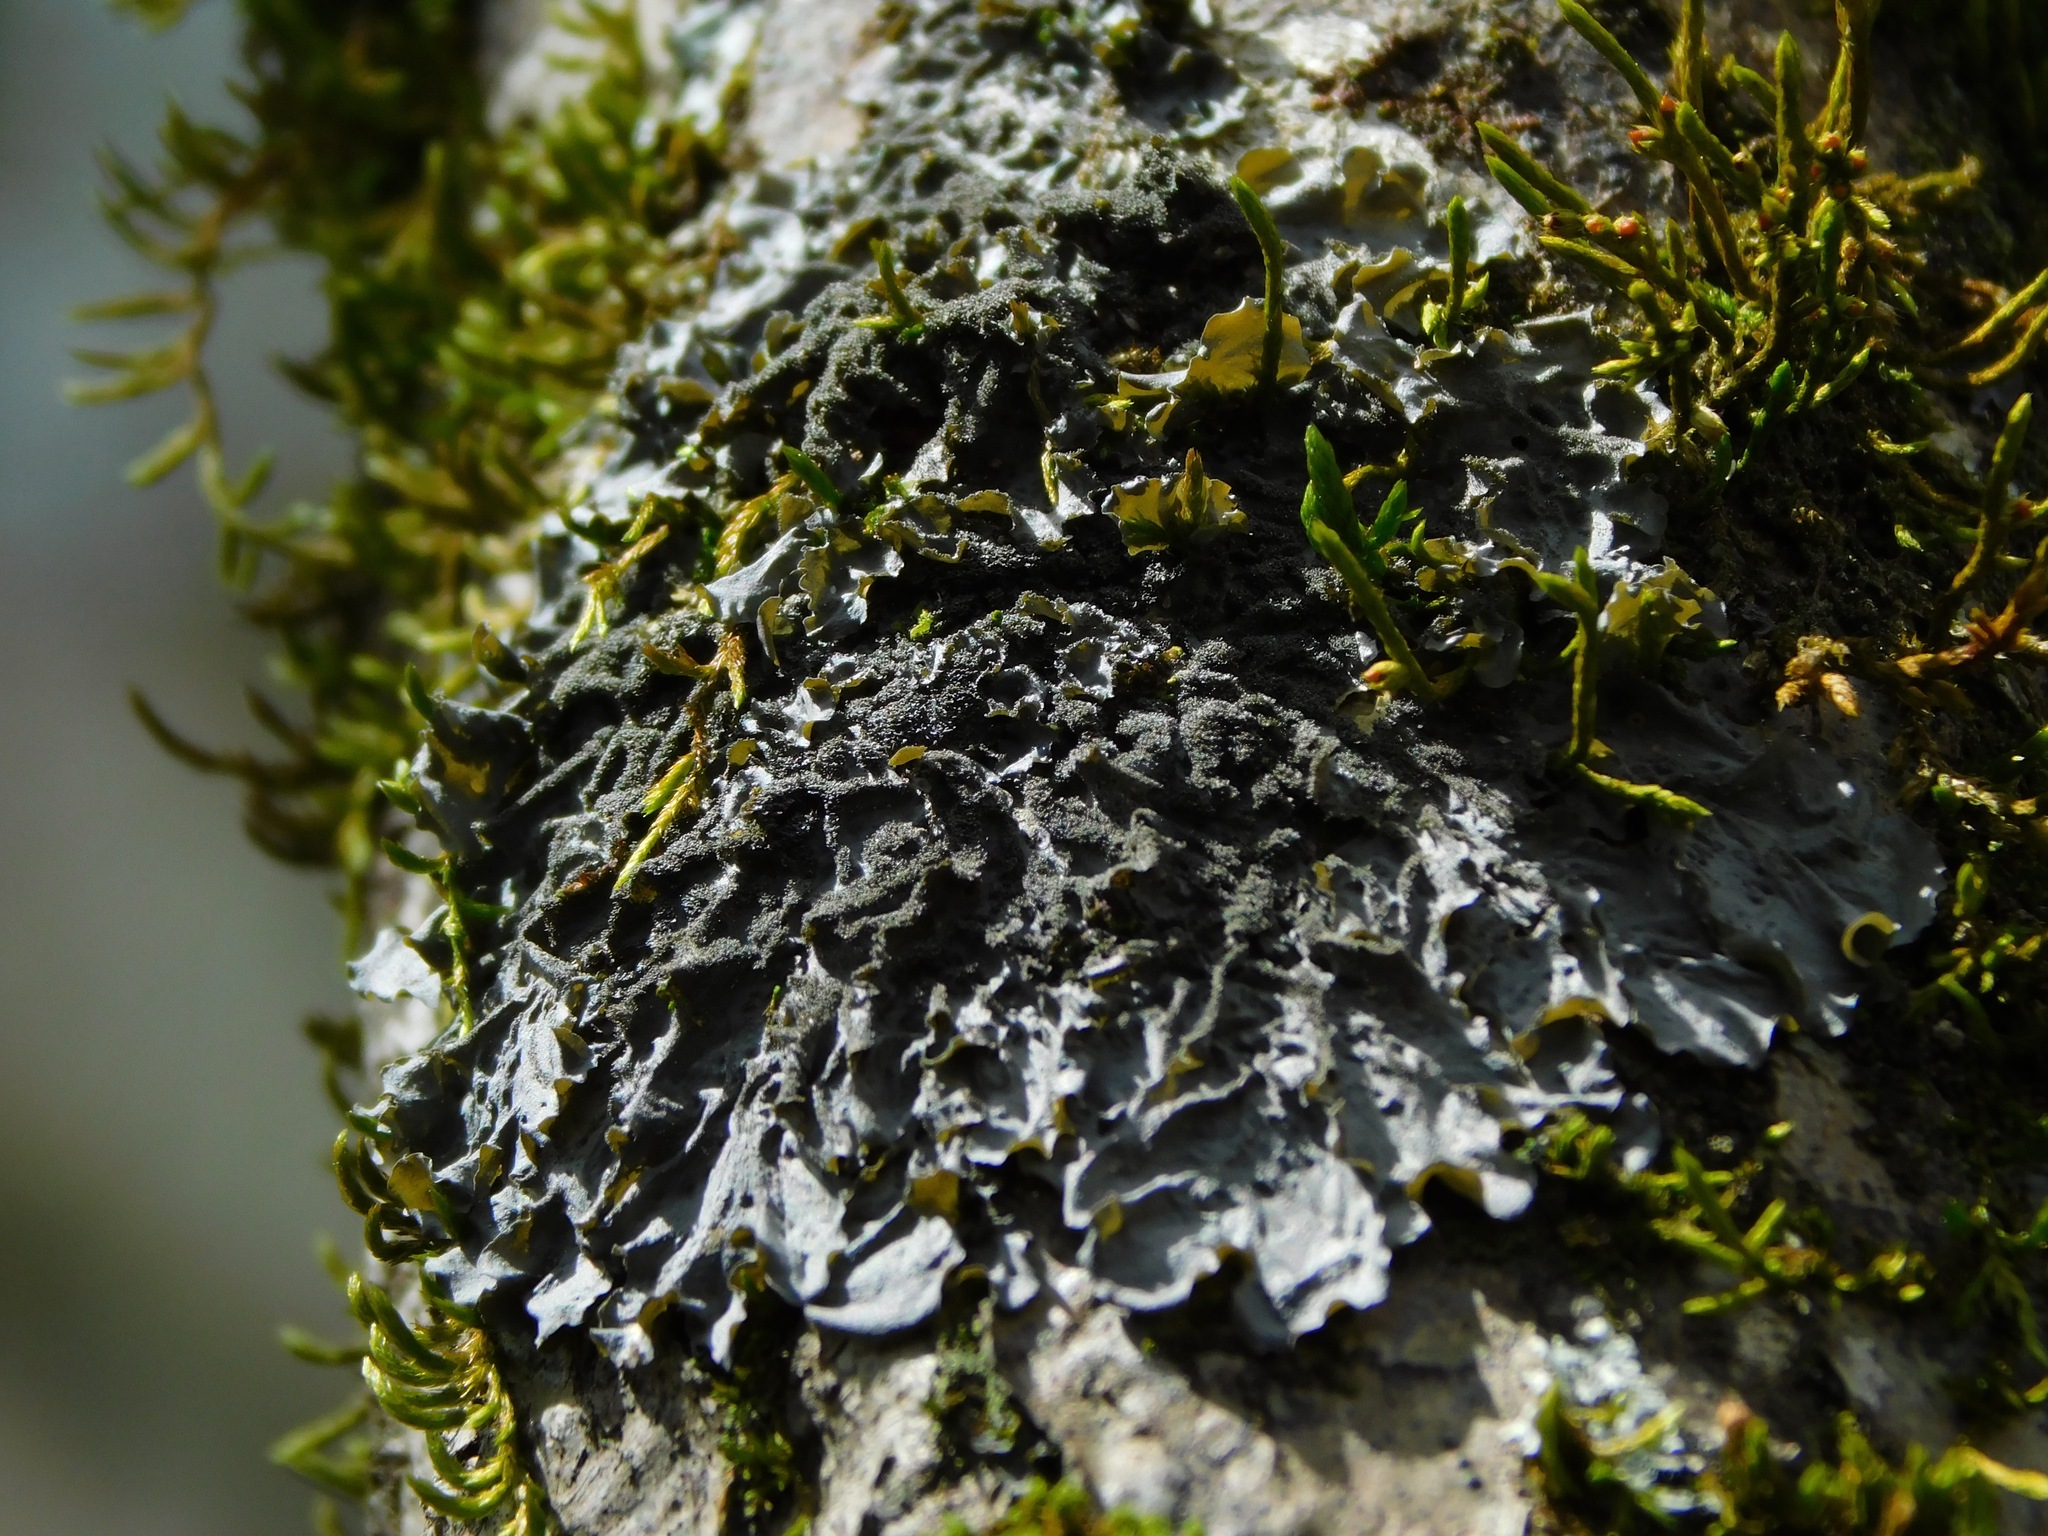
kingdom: Fungi
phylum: Ascomycota
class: Lecanoromycetes
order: Peltigerales
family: Collemataceae
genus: Leptogium
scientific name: Leptogium cyanescens
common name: Blue jellyskin
